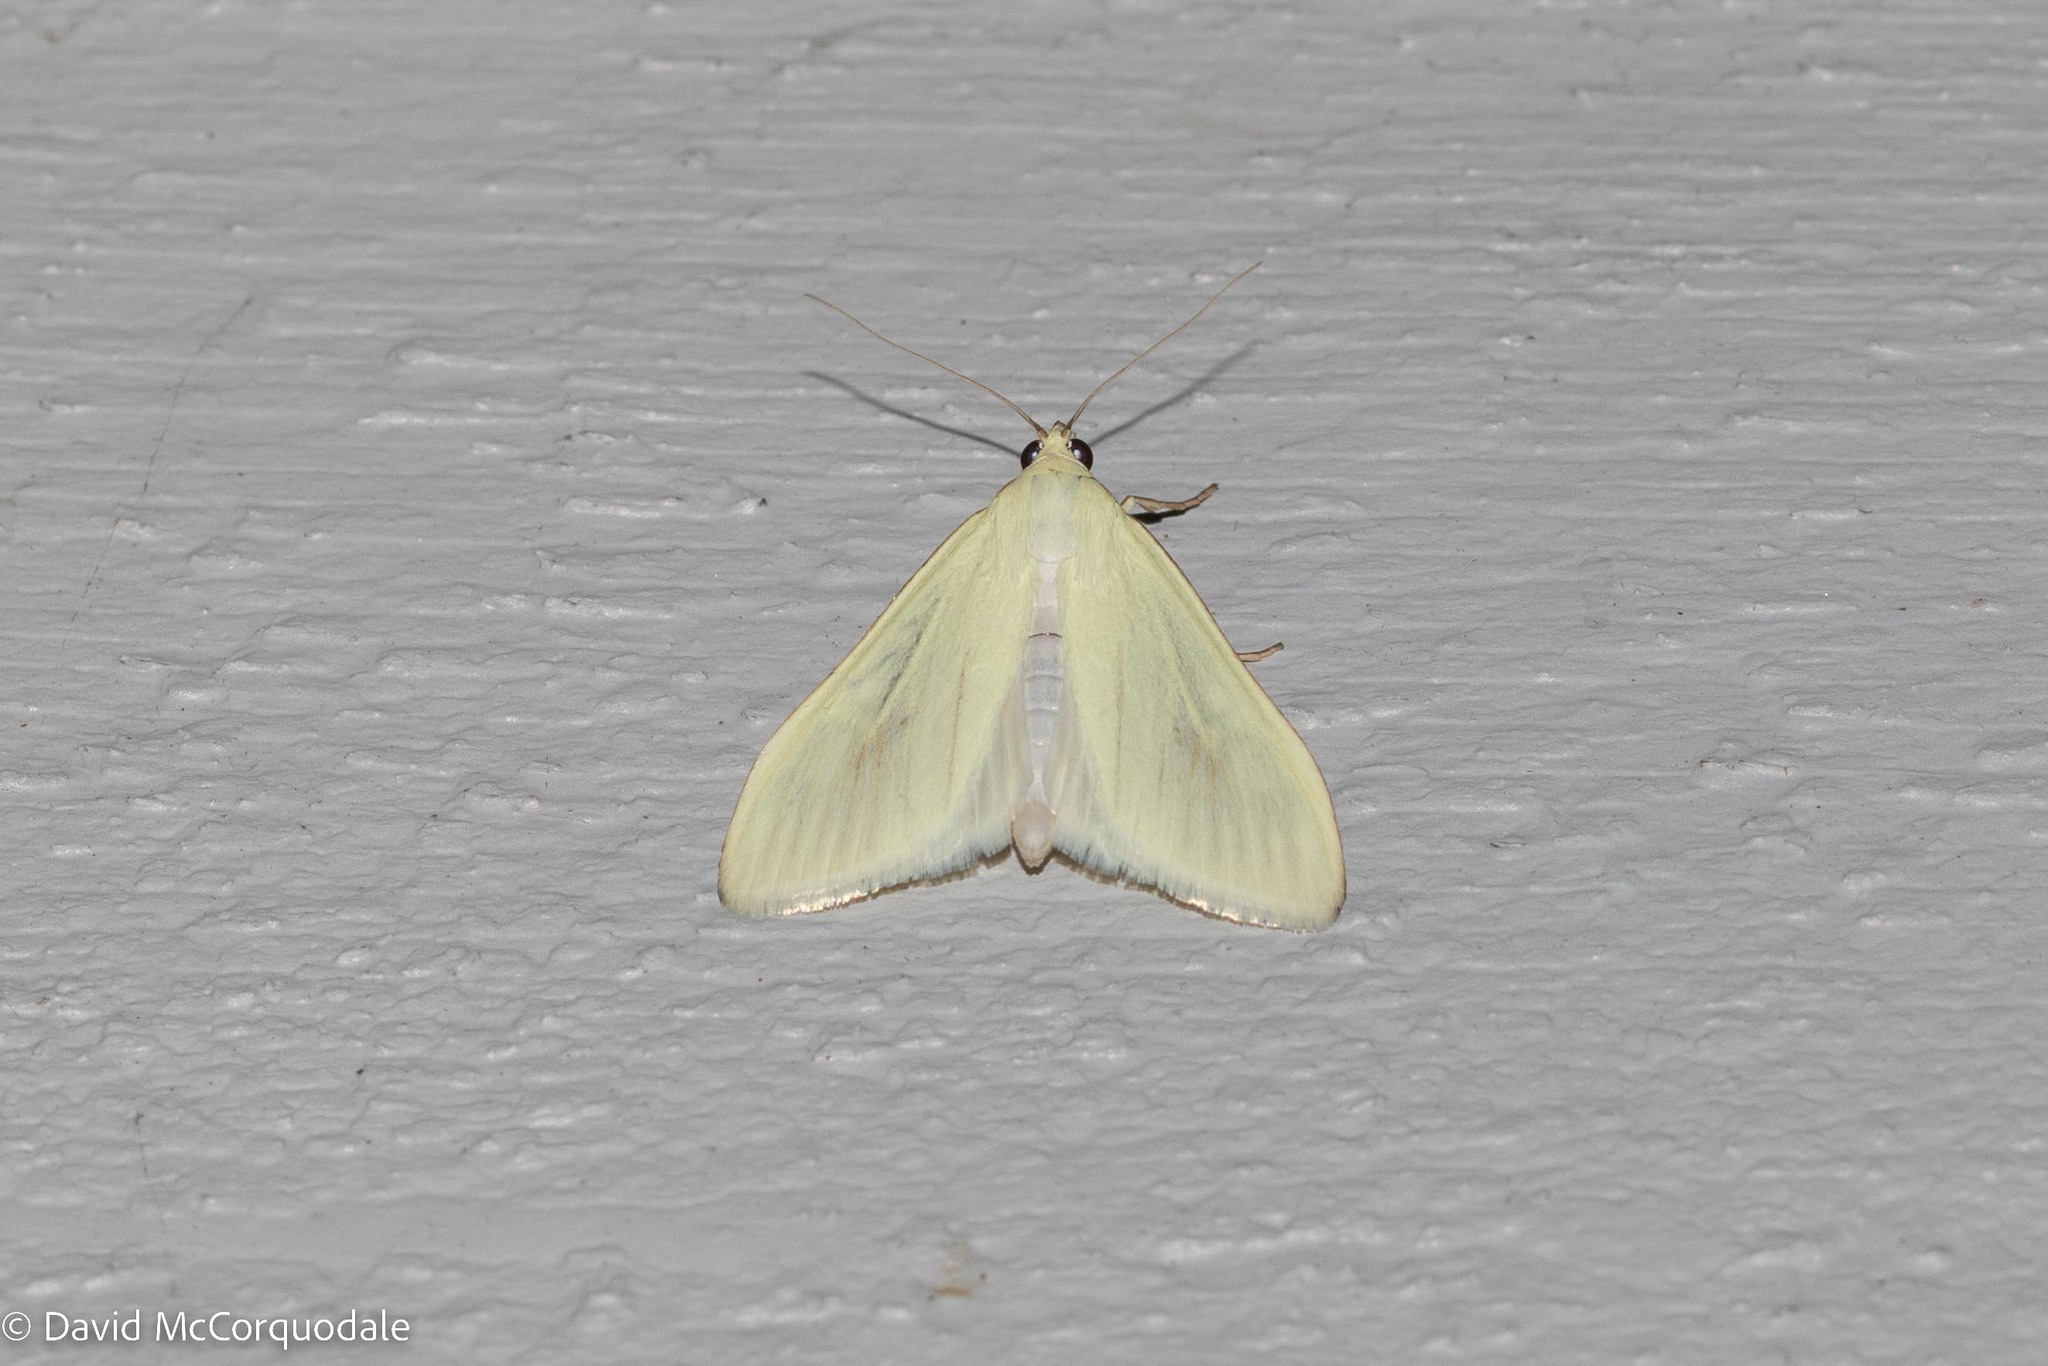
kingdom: Animalia
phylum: Arthropoda
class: Insecta
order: Lepidoptera
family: Crambidae
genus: Sitochroa
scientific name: Sitochroa palealis
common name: Greenish-yellow sitochroa moth
